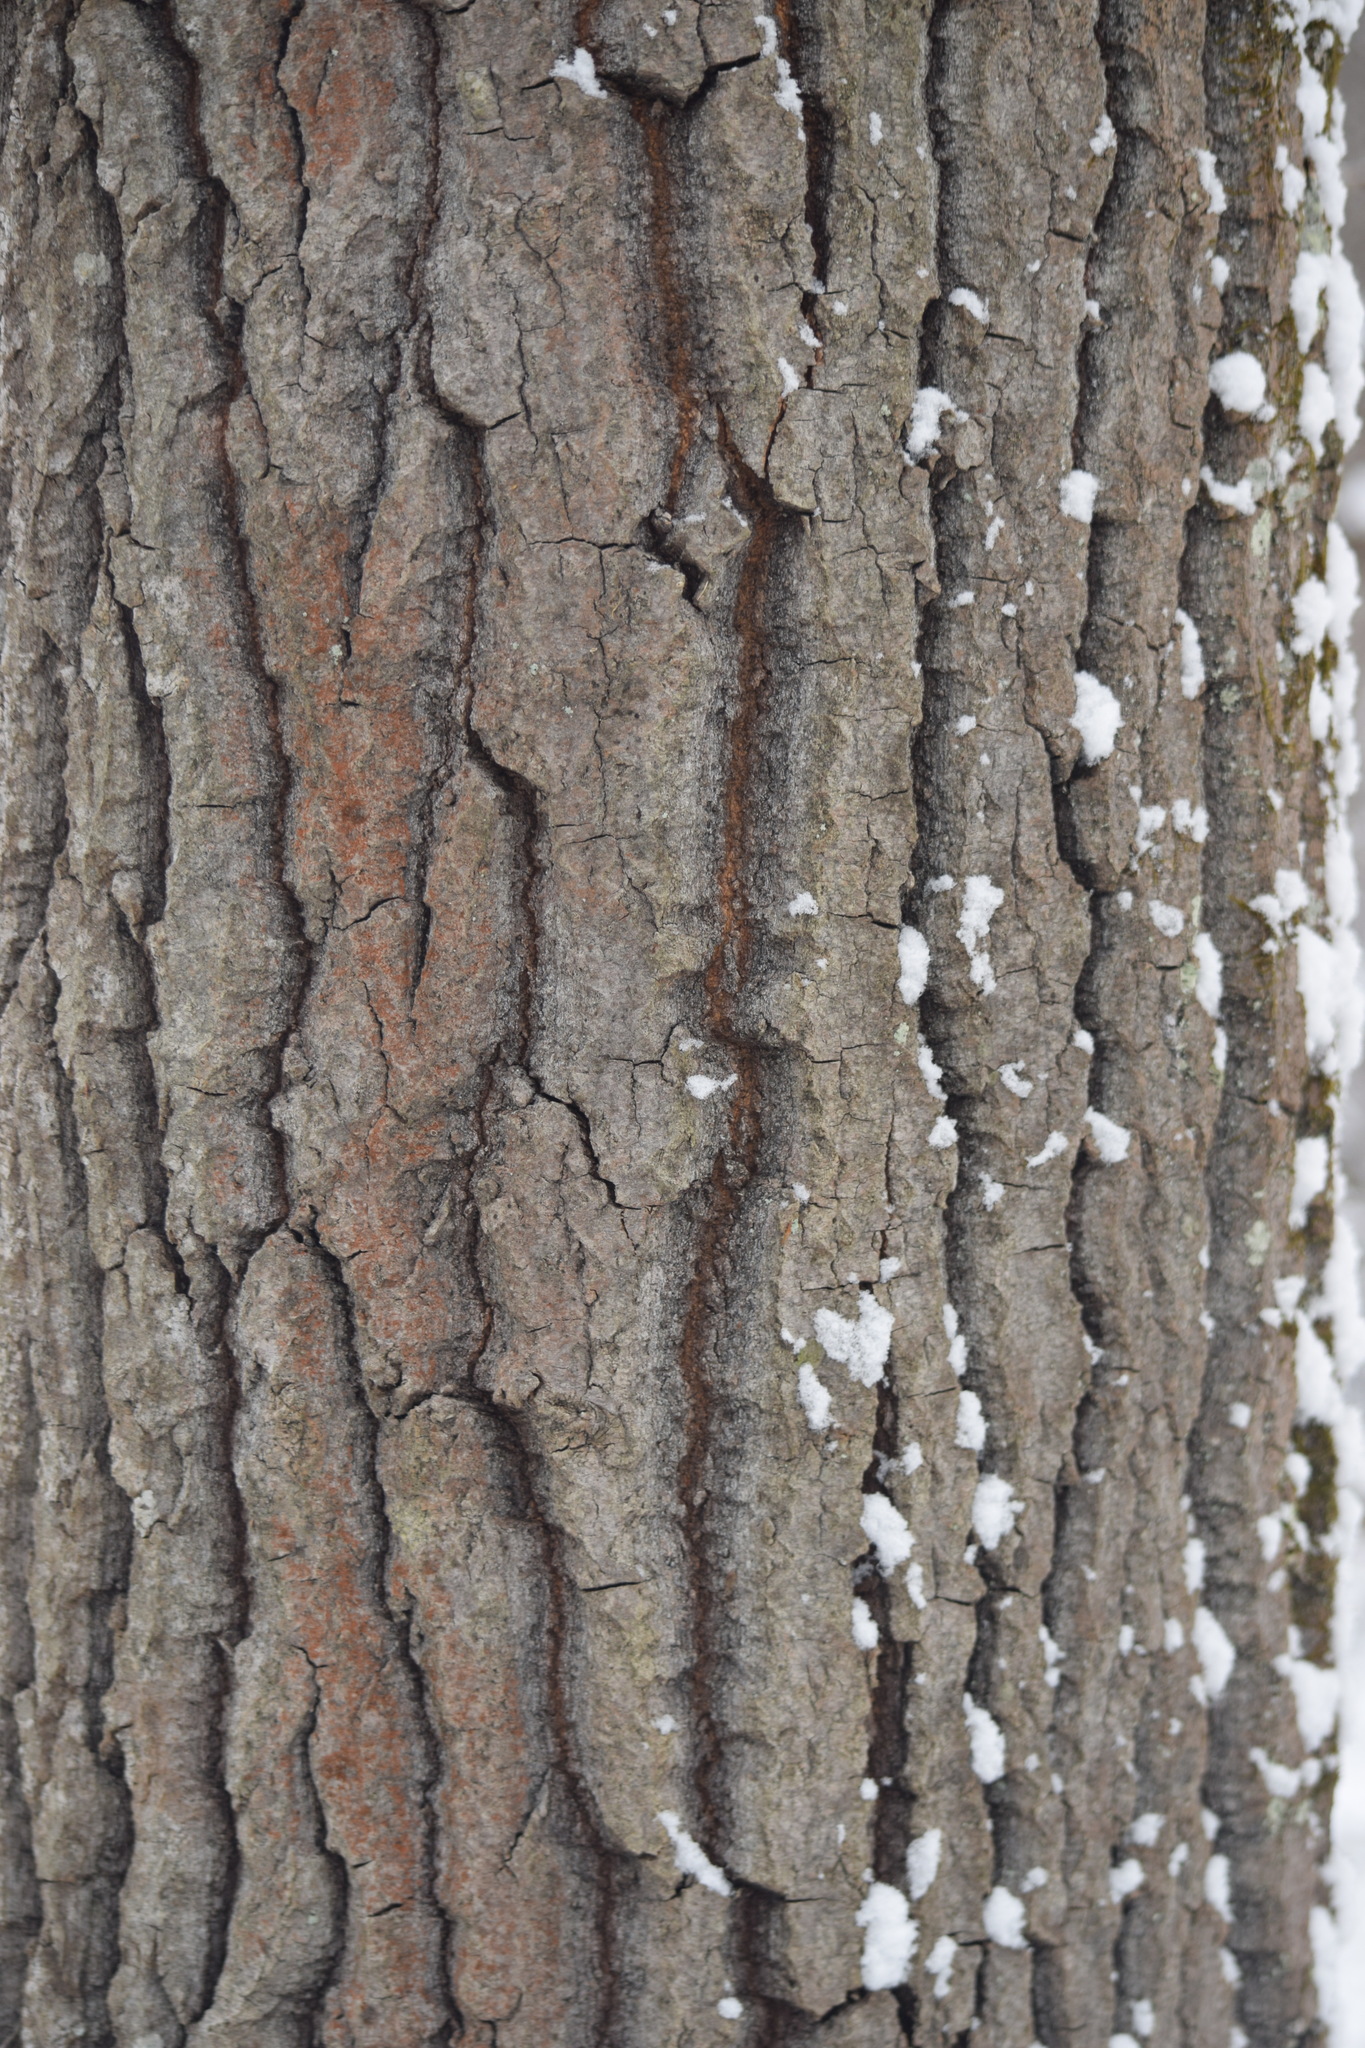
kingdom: Plantae
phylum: Tracheophyta
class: Magnoliopsida
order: Malpighiales
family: Salicaceae
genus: Populus
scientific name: Populus tremula
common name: European aspen
